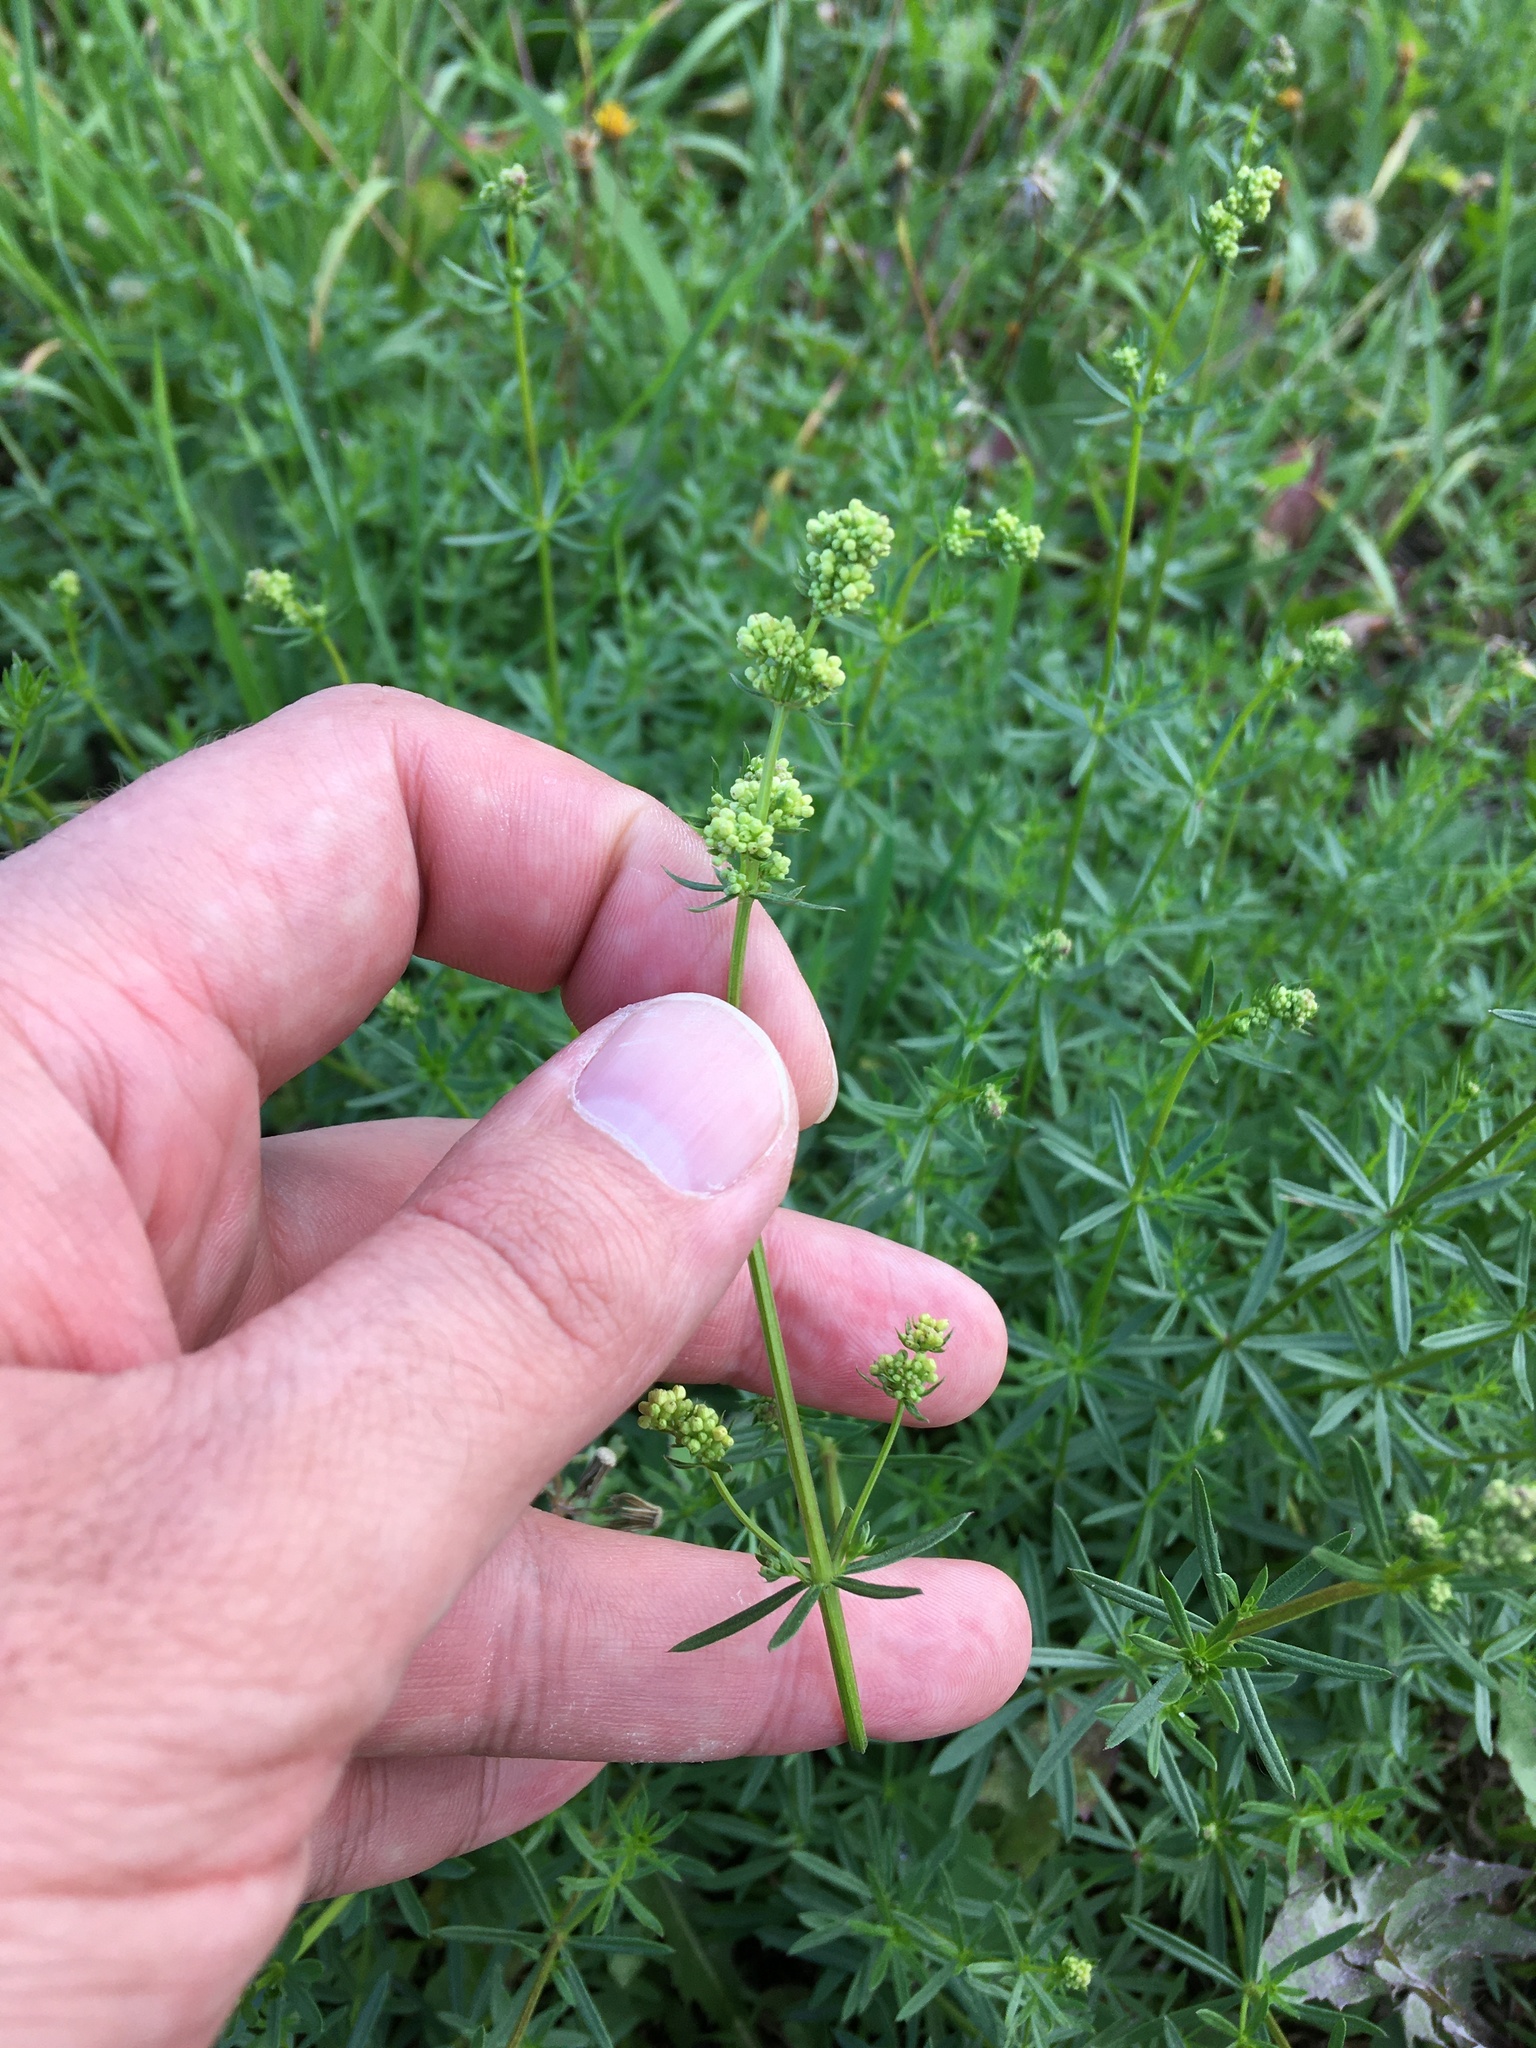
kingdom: Plantae
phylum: Tracheophyta
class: Magnoliopsida
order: Gentianales
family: Rubiaceae
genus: Galium
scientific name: Galium mollugo
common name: Hedge bedstraw
